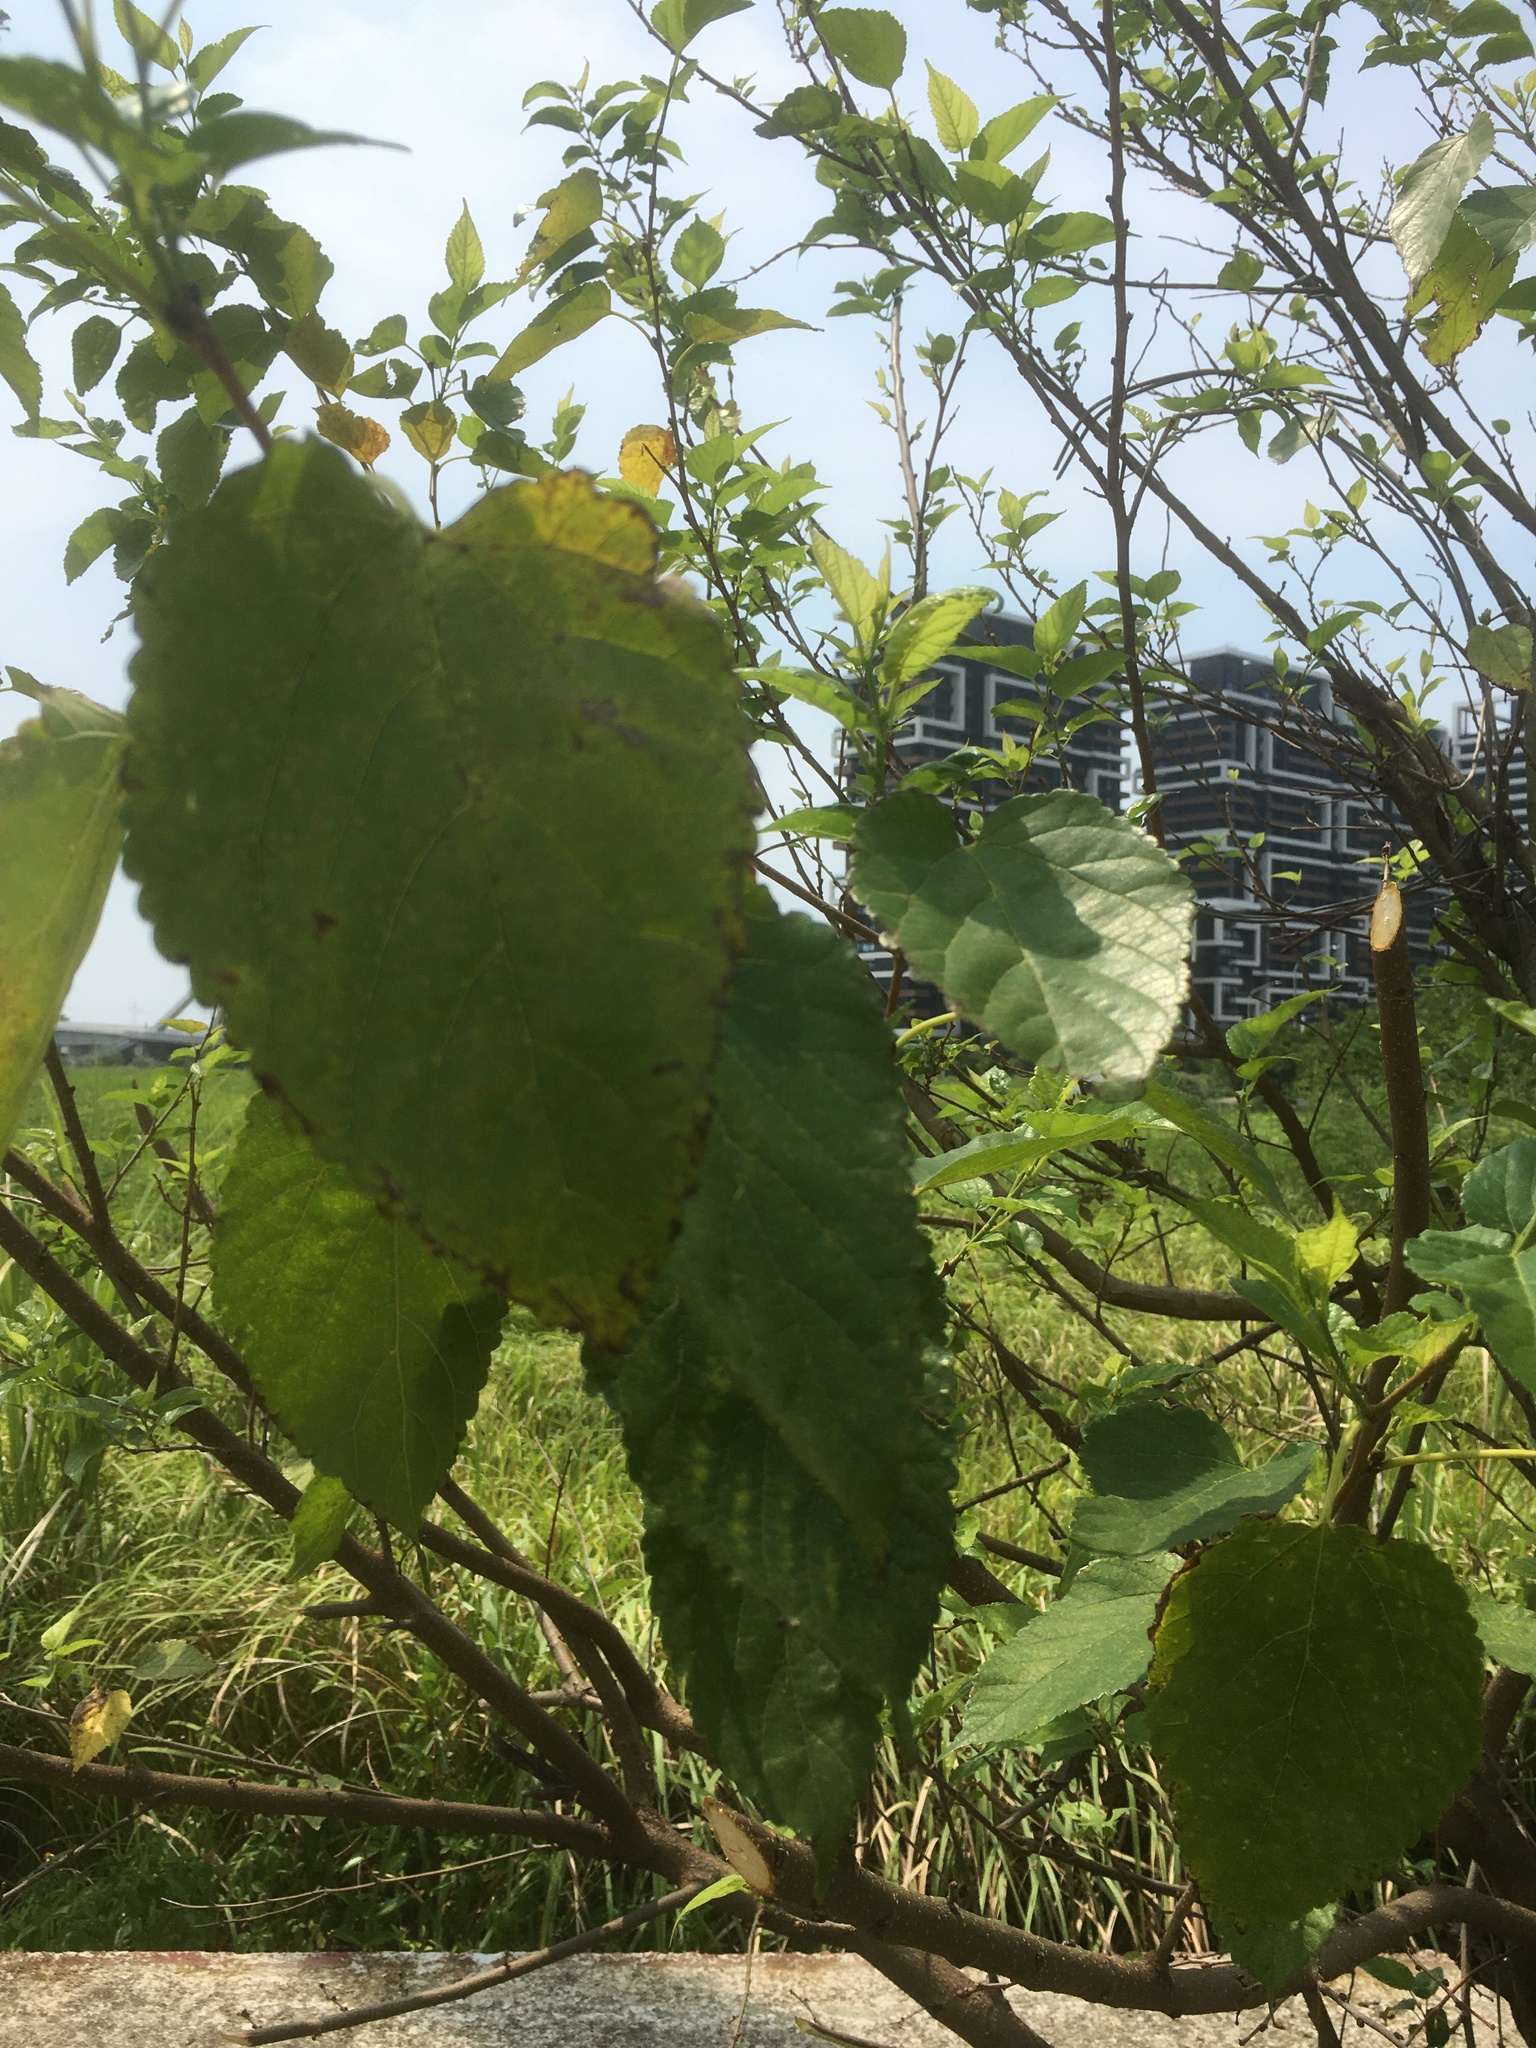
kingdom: Plantae
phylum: Tracheophyta
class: Magnoliopsida
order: Rosales
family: Moraceae
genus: Morus
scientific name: Morus indica
